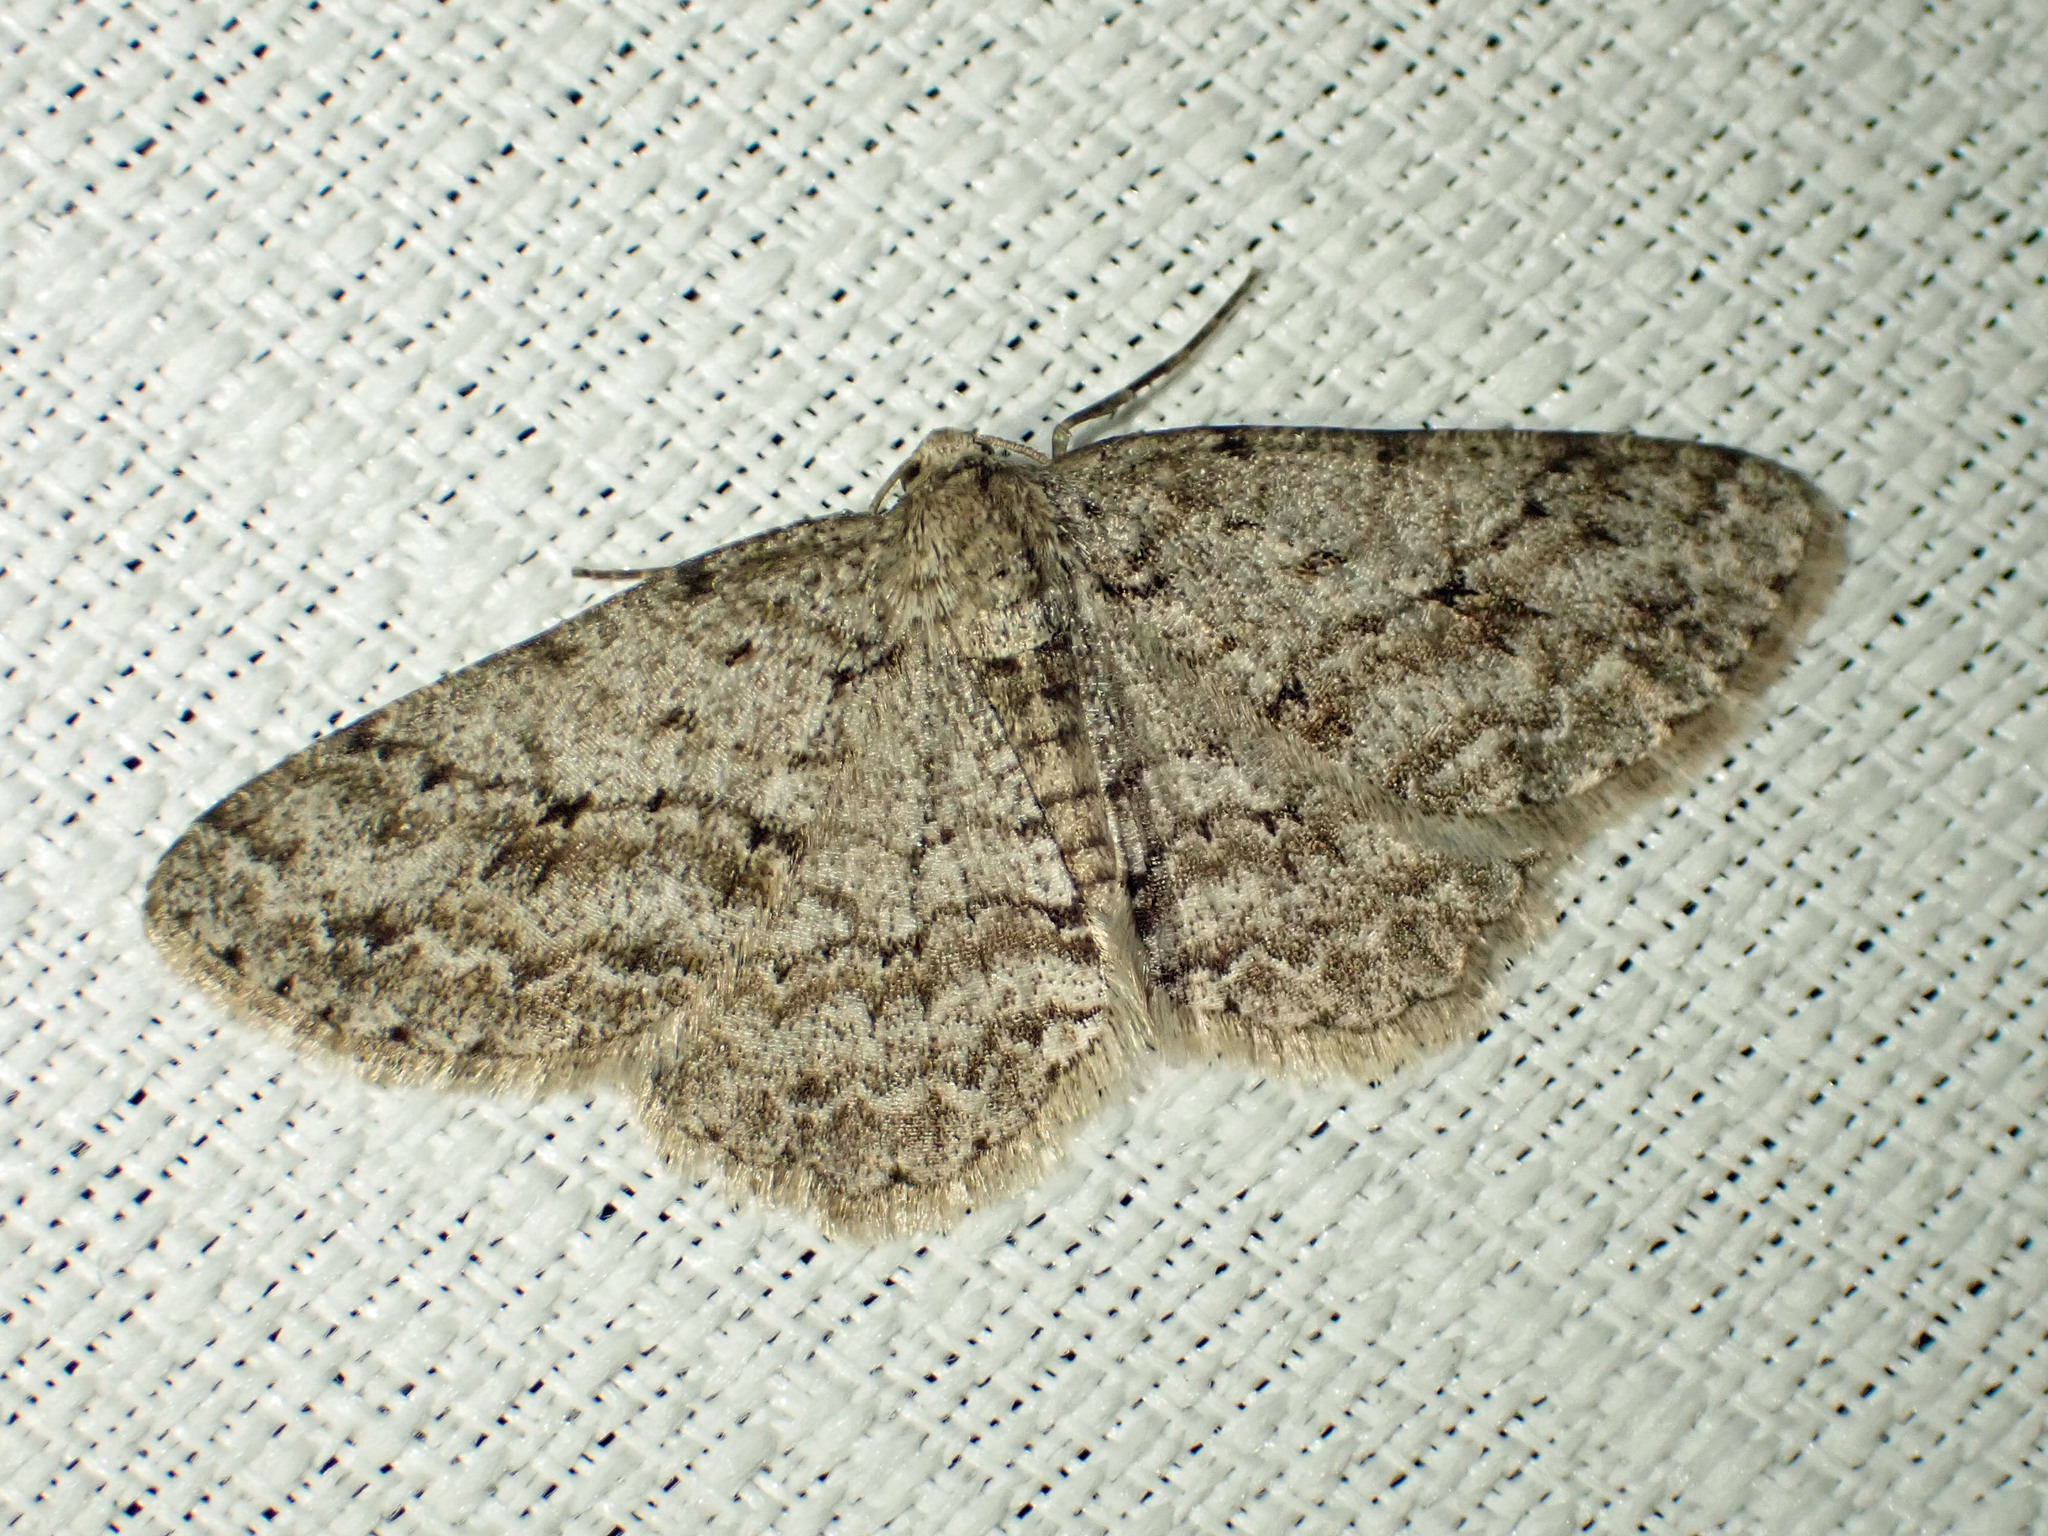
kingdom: Animalia
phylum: Arthropoda
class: Insecta
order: Lepidoptera
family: Geometridae
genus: Ectropis
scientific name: Ectropis crepuscularia
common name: Engrailed
